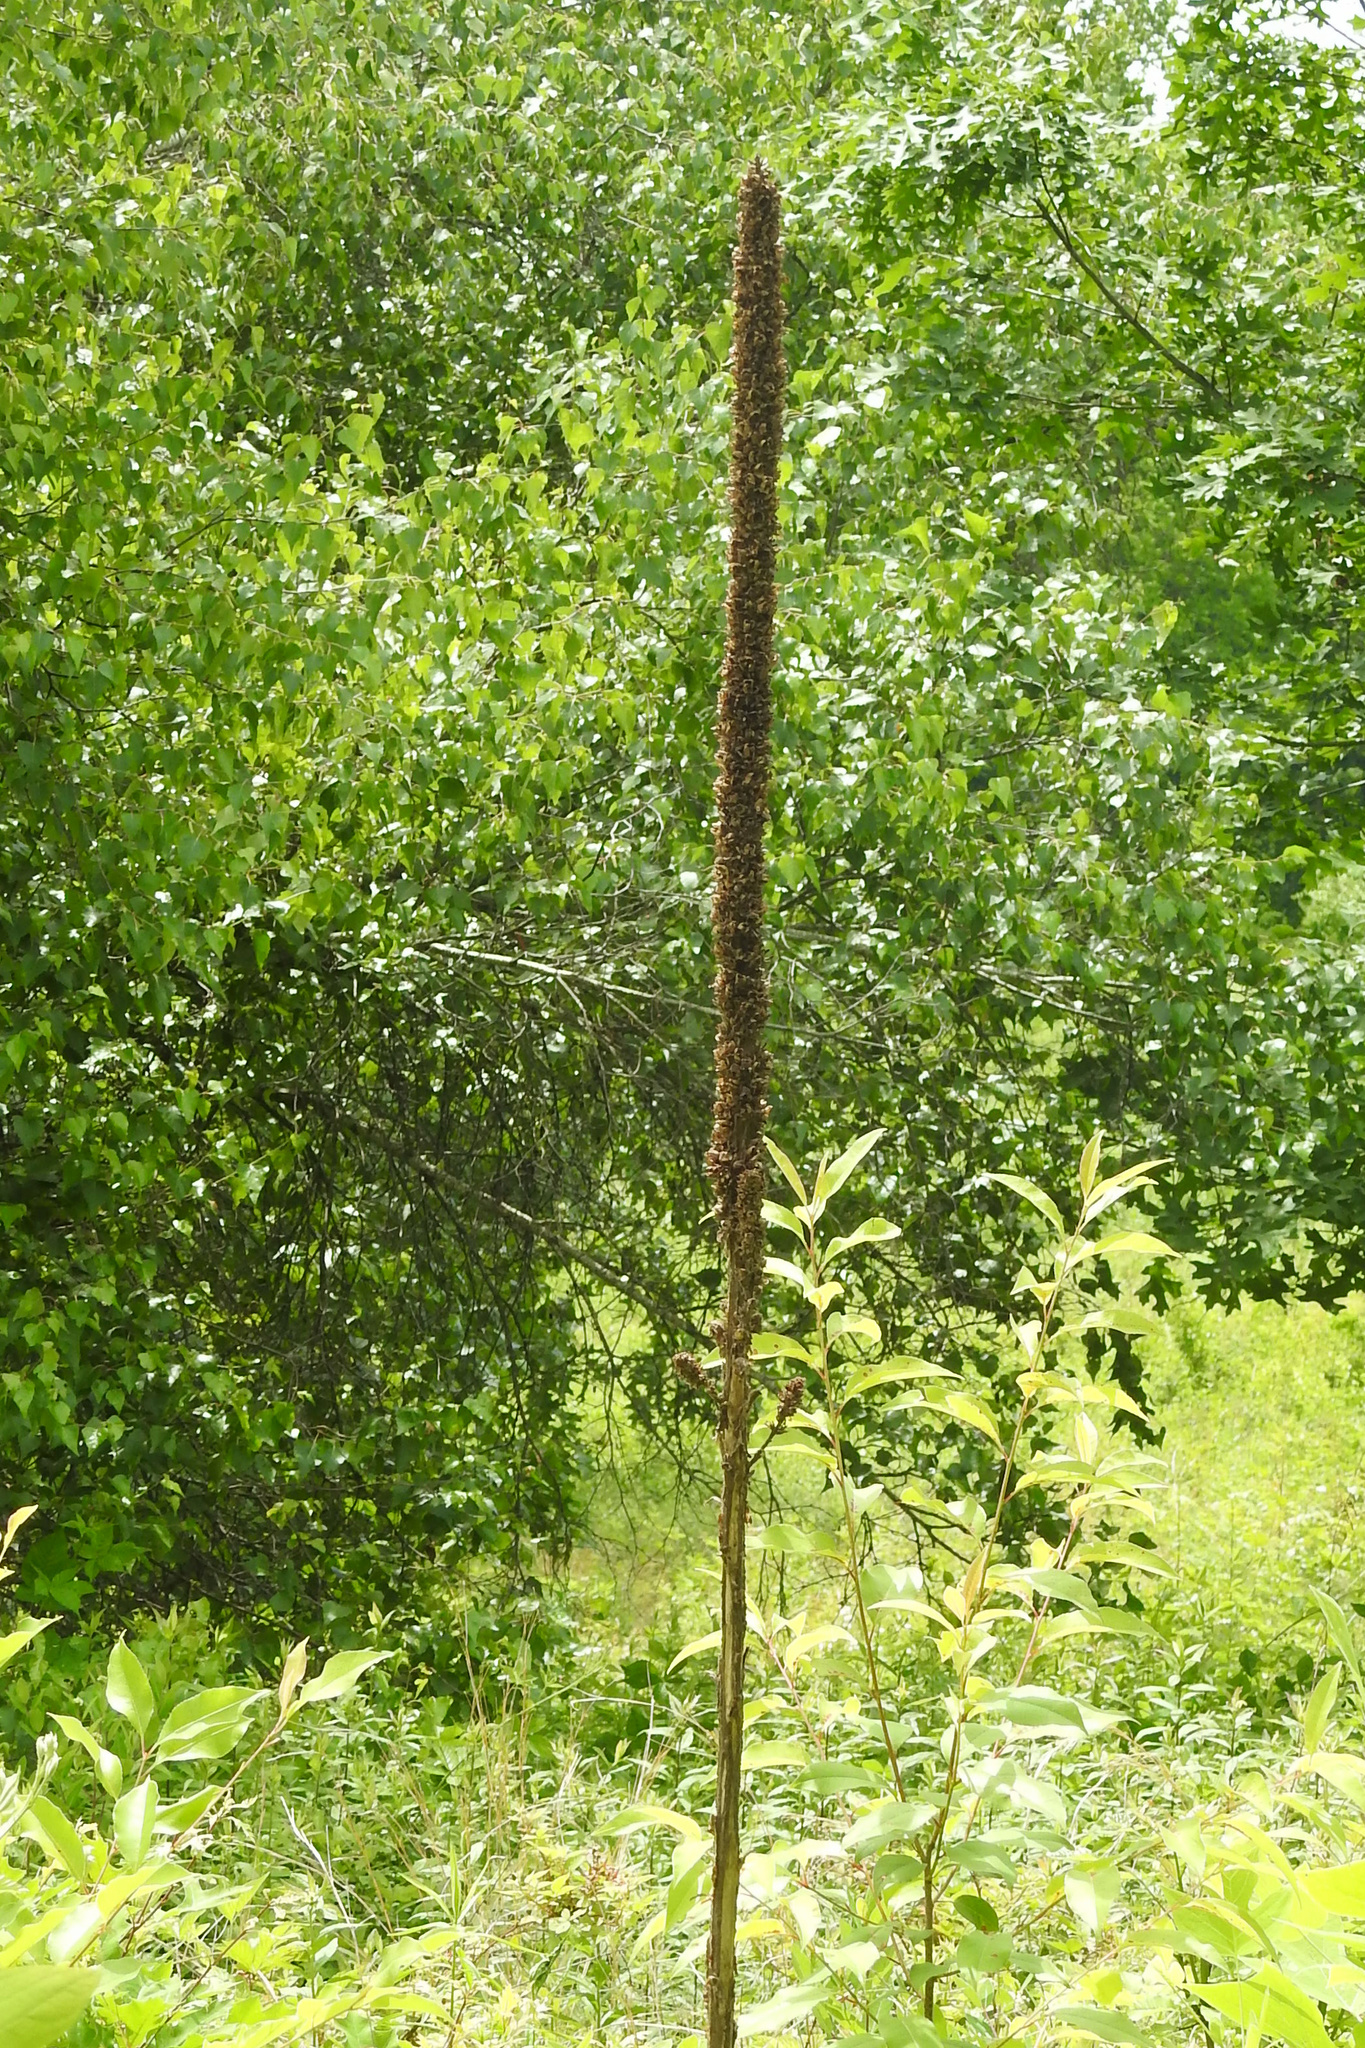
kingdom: Plantae
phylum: Tracheophyta
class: Magnoliopsida
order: Lamiales
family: Scrophulariaceae
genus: Verbascum
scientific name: Verbascum thapsus
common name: Common mullein
